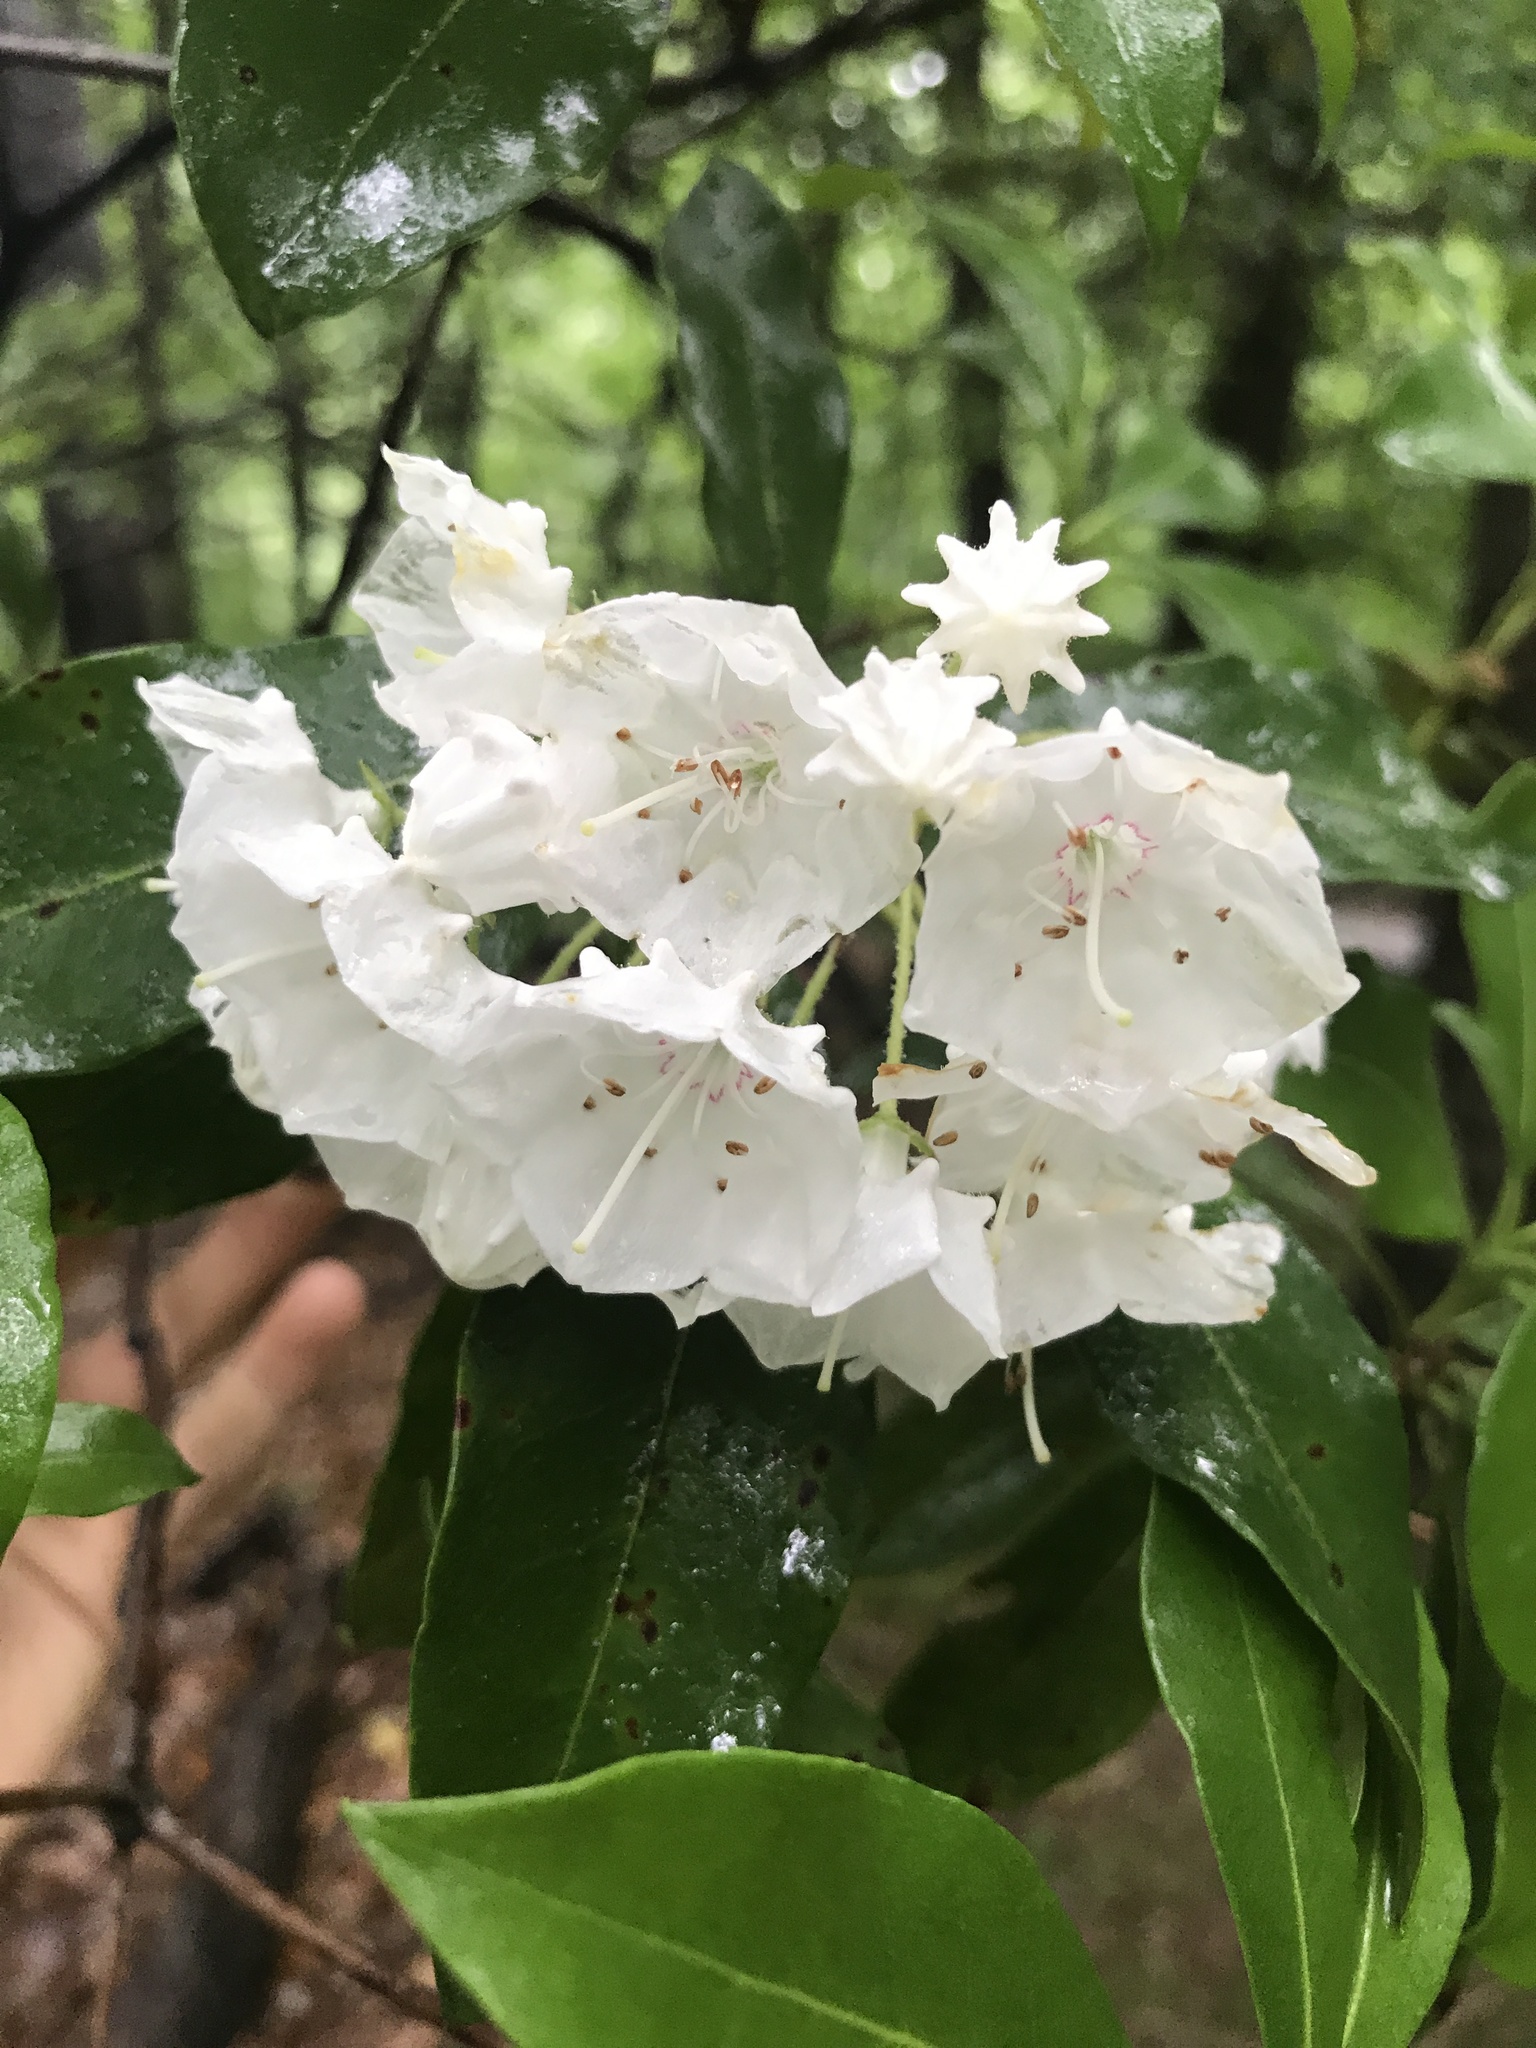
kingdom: Plantae
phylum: Tracheophyta
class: Magnoliopsida
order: Ericales
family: Ericaceae
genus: Kalmia
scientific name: Kalmia latifolia
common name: Mountain-laurel
